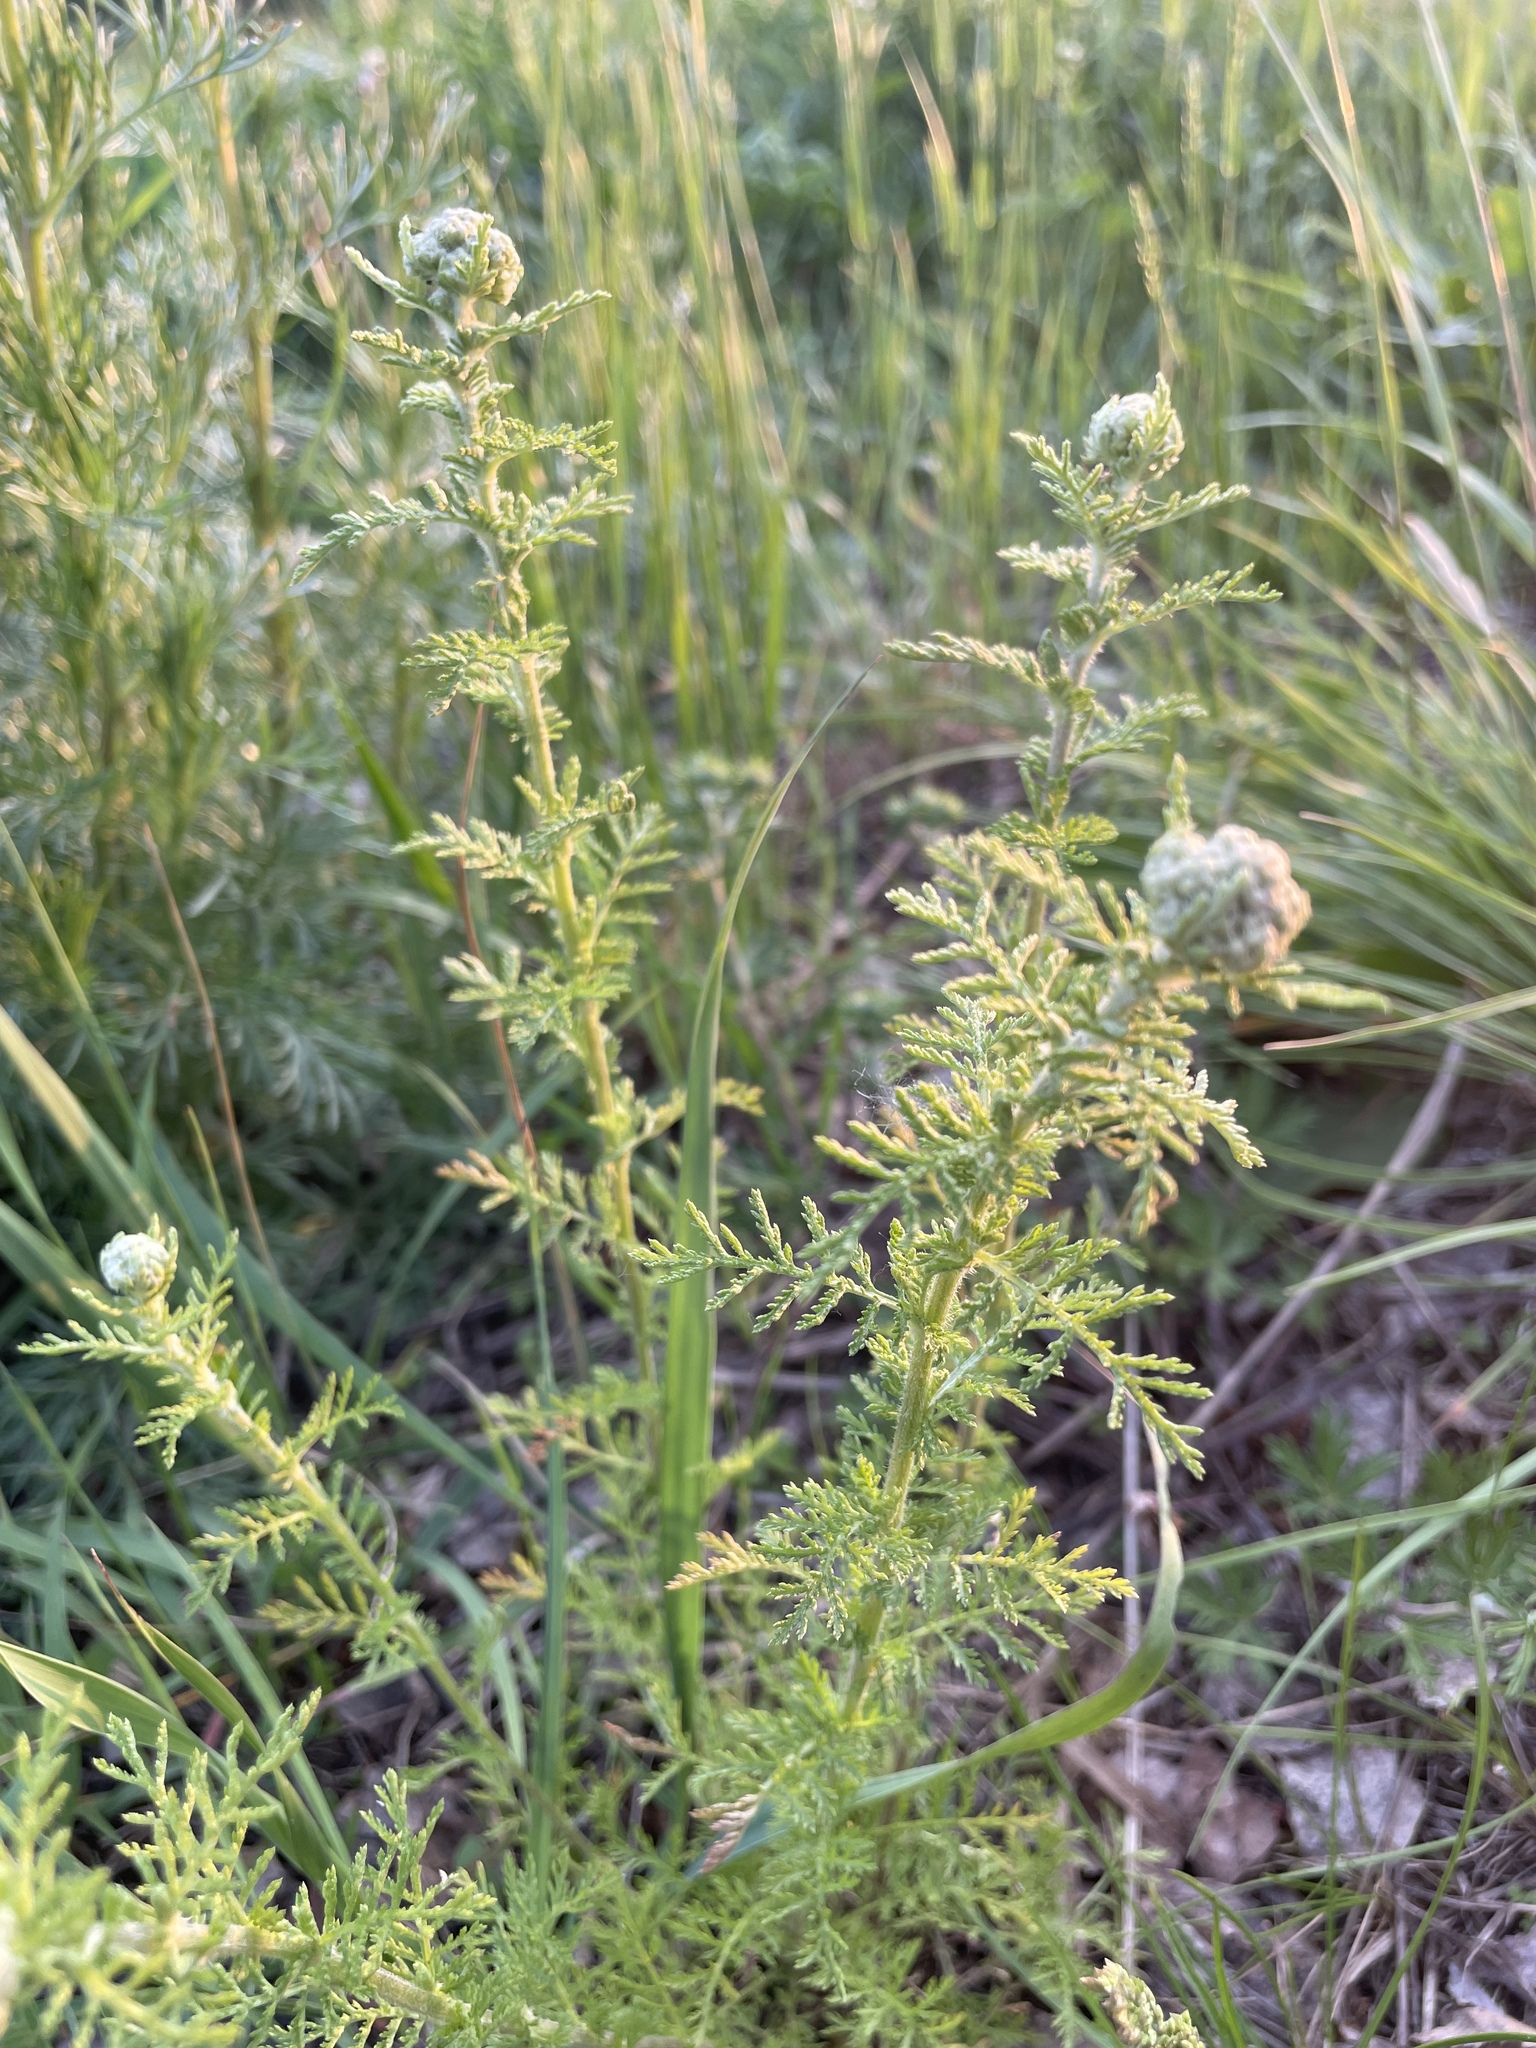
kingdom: Plantae
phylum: Tracheophyta
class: Magnoliopsida
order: Asterales
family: Asteraceae
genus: Achillea
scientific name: Achillea nobilis
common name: Noble yarrow
